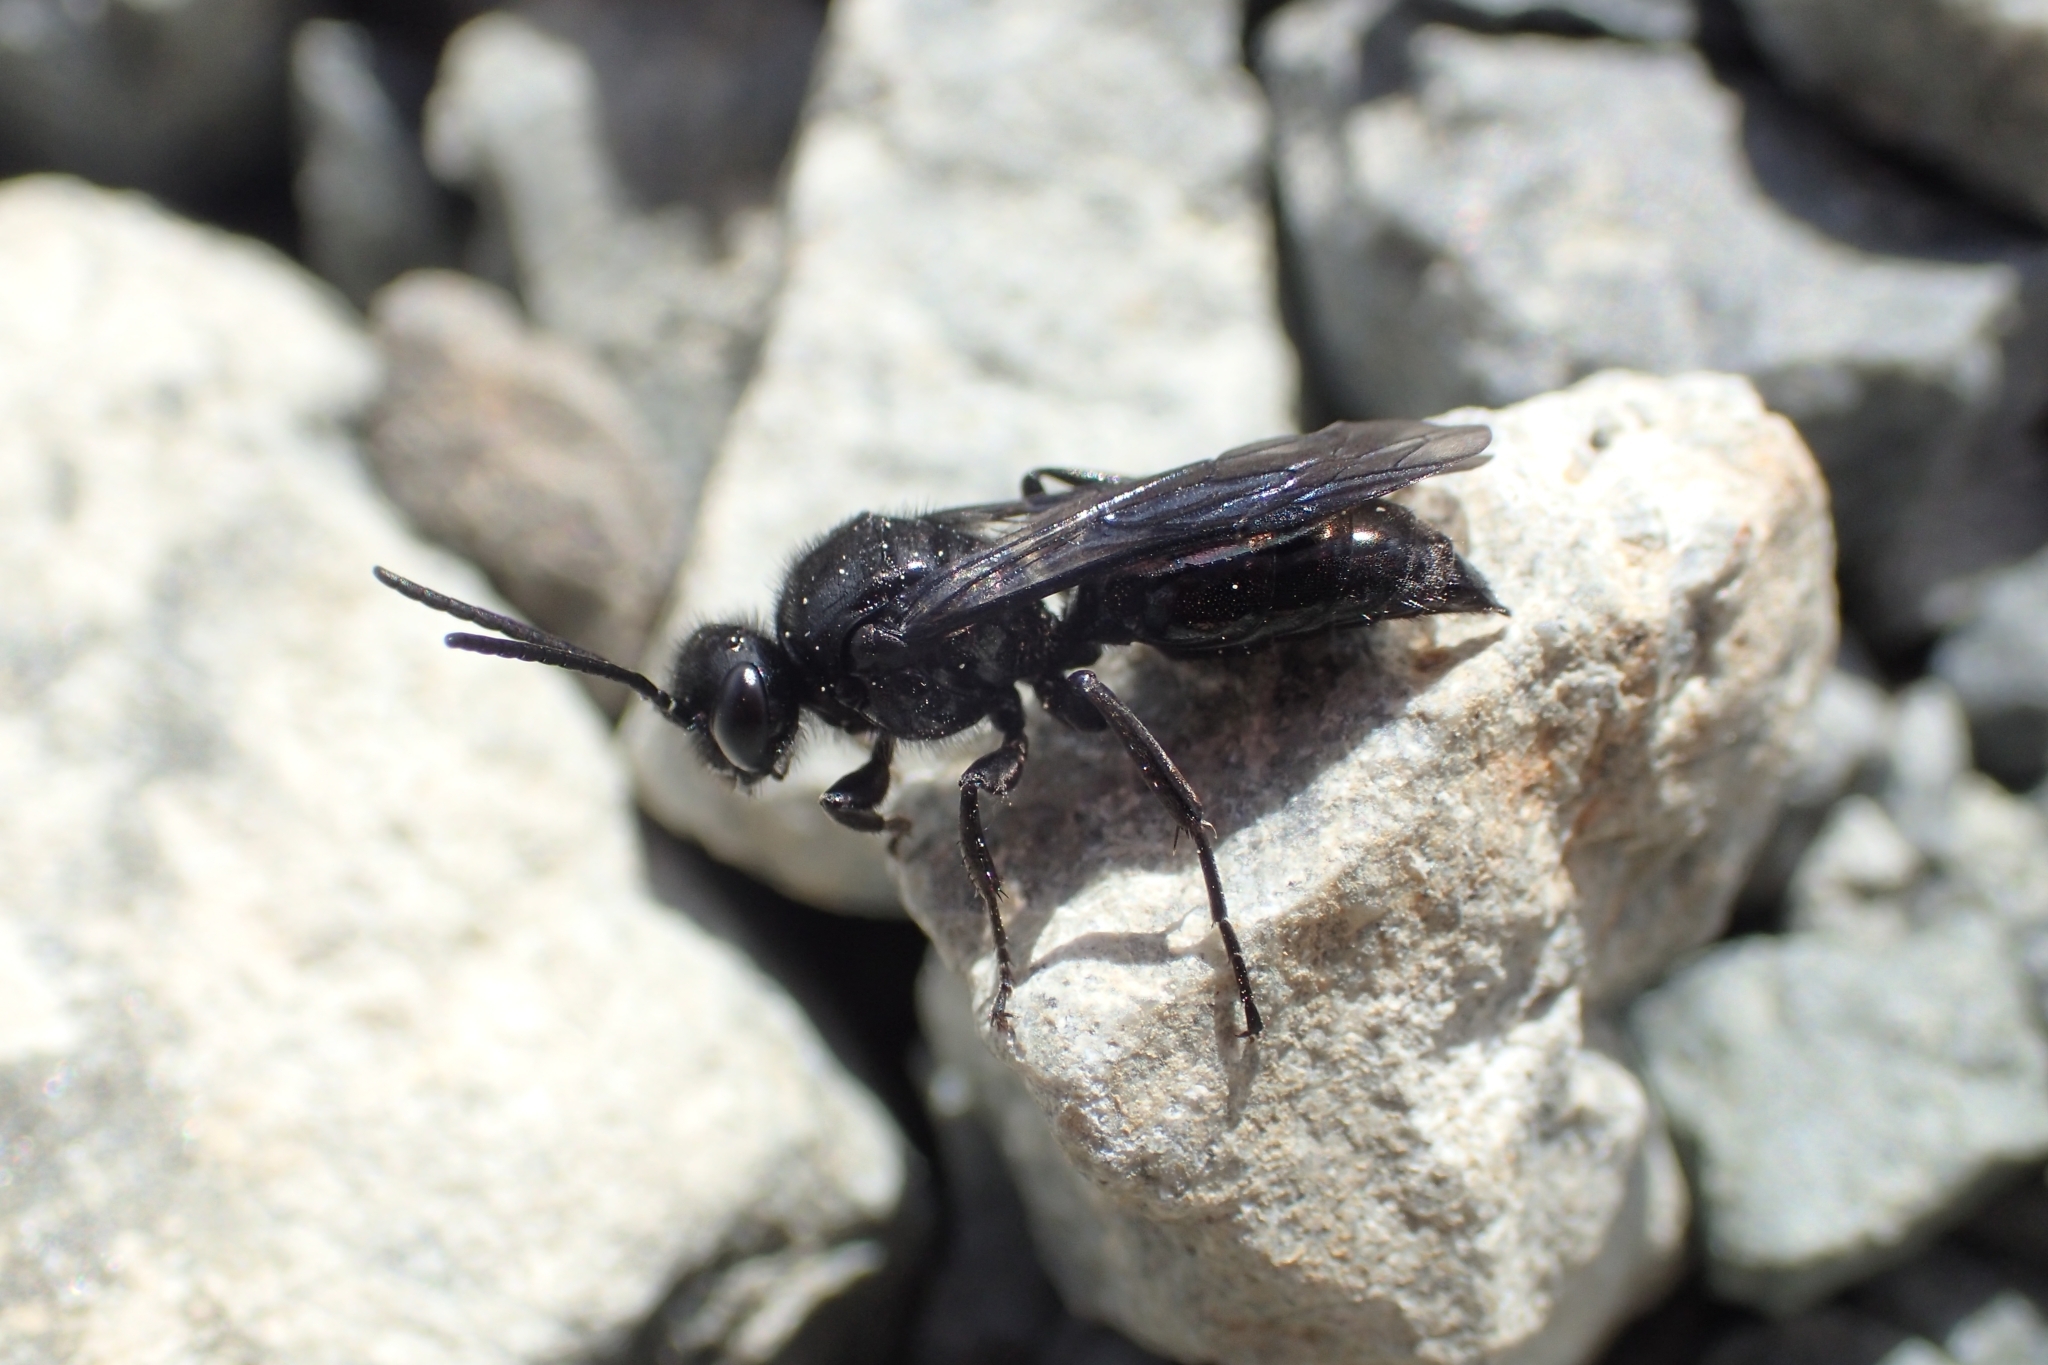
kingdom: Animalia
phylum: Arthropoda
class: Insecta
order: Hymenoptera
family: Crabronidae
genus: Argogorytes
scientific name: Argogorytes carbonarius
